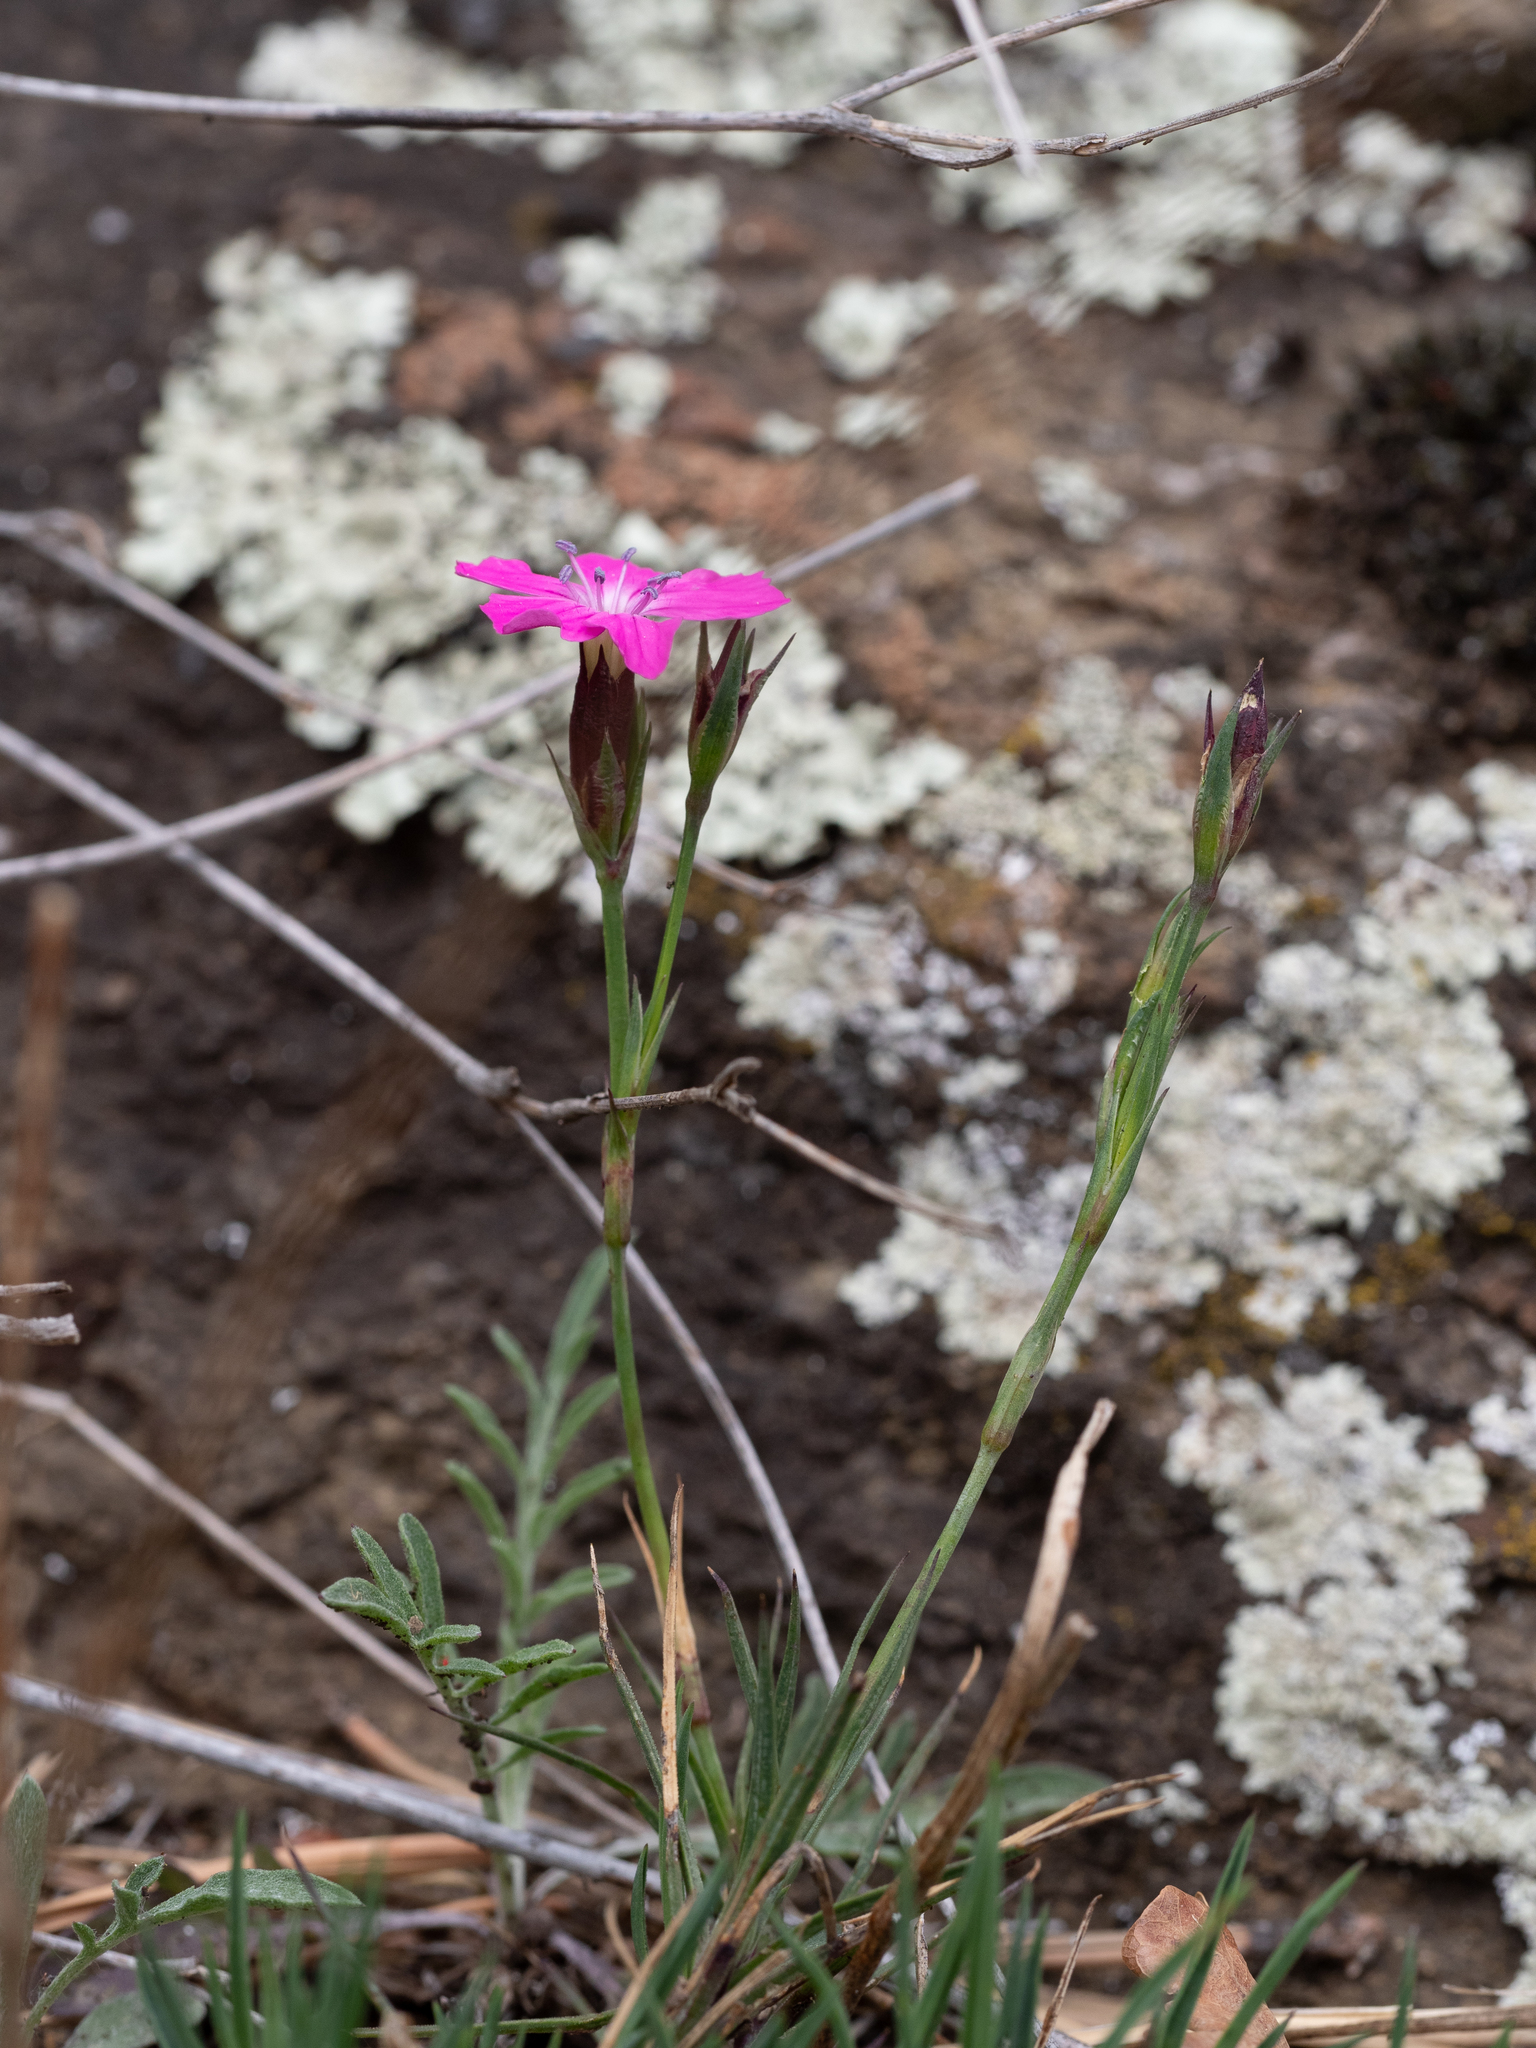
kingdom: Plantae
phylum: Tracheophyta
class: Magnoliopsida
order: Caryophyllales
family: Caryophyllaceae
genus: Dianthus
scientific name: Dianthus carthusianorum
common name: Carthusian pink
